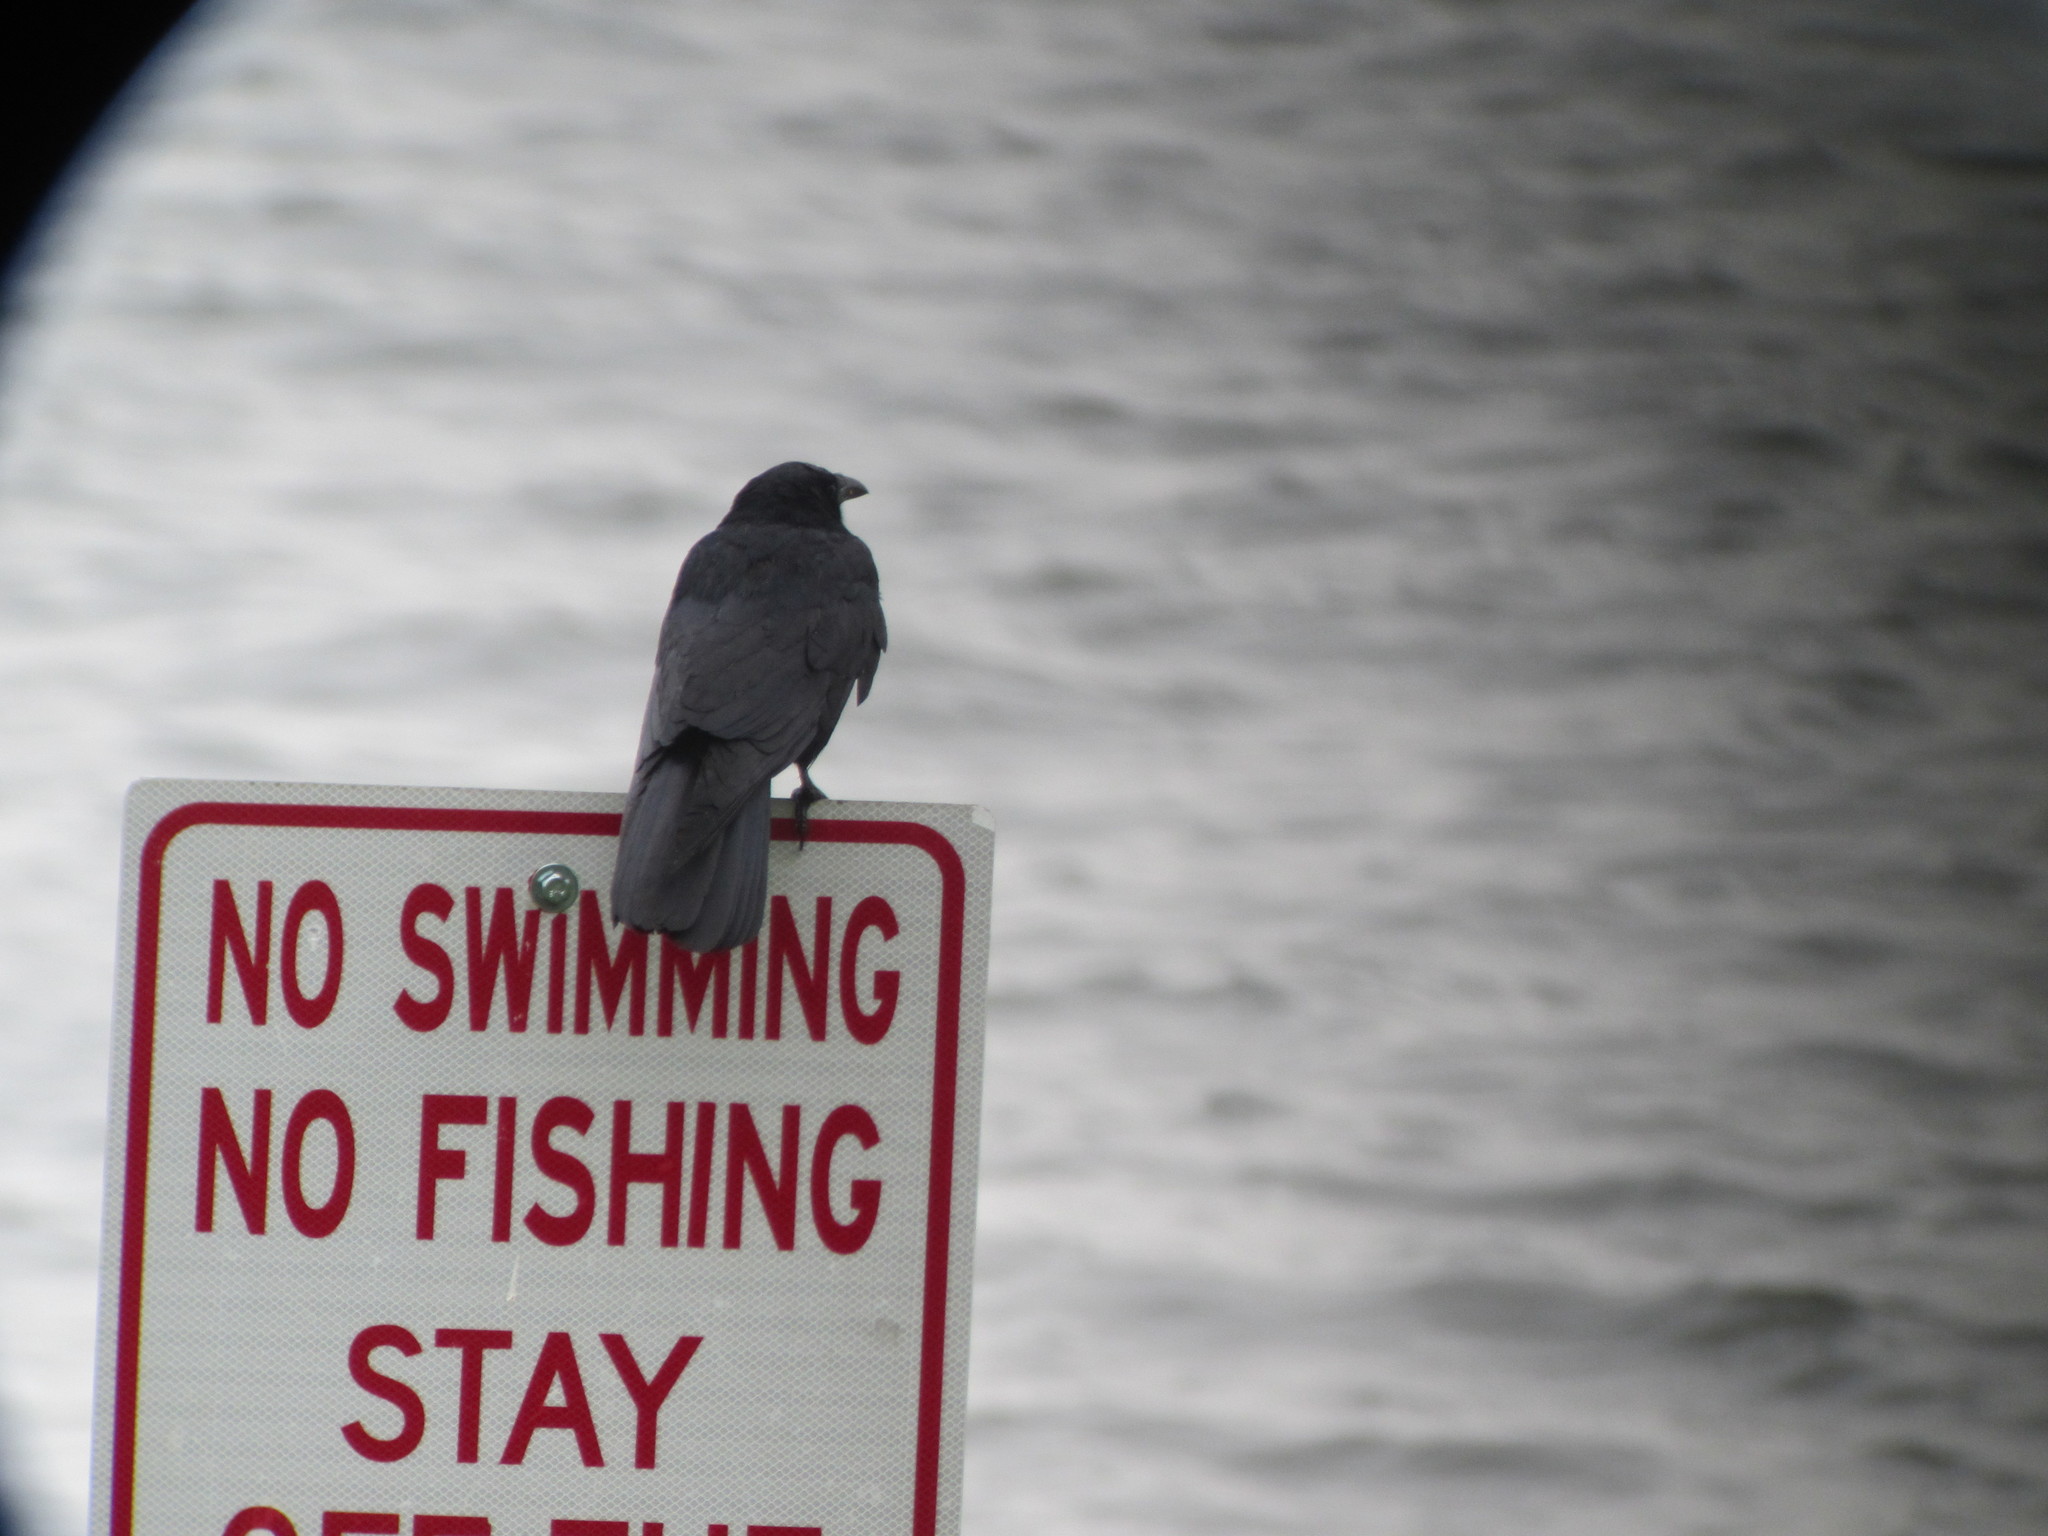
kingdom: Animalia
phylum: Chordata
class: Aves
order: Passeriformes
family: Corvidae
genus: Corvus
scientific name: Corvus
